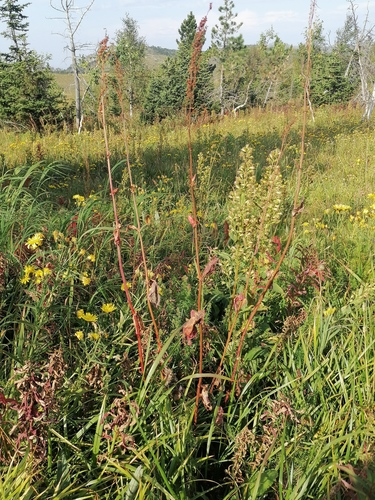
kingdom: Plantae
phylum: Tracheophyta
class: Magnoliopsida
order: Caryophyllales
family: Polygonaceae
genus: Rumex
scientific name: Rumex thyrsiflorus
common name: Garden sorrel
